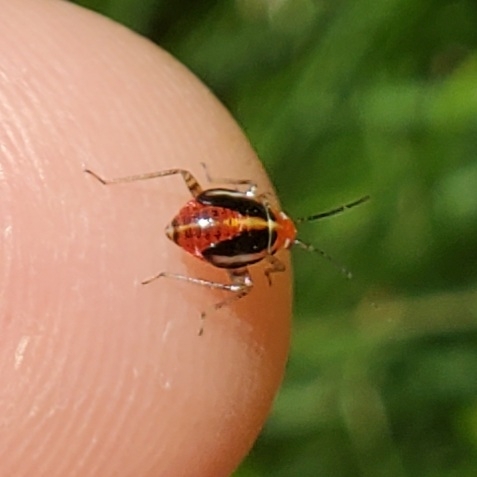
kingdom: Animalia
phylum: Arthropoda
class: Insecta
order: Hemiptera
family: Miridae
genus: Poecilocapsus
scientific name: Poecilocapsus lineatus
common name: Four-lined plant bug
